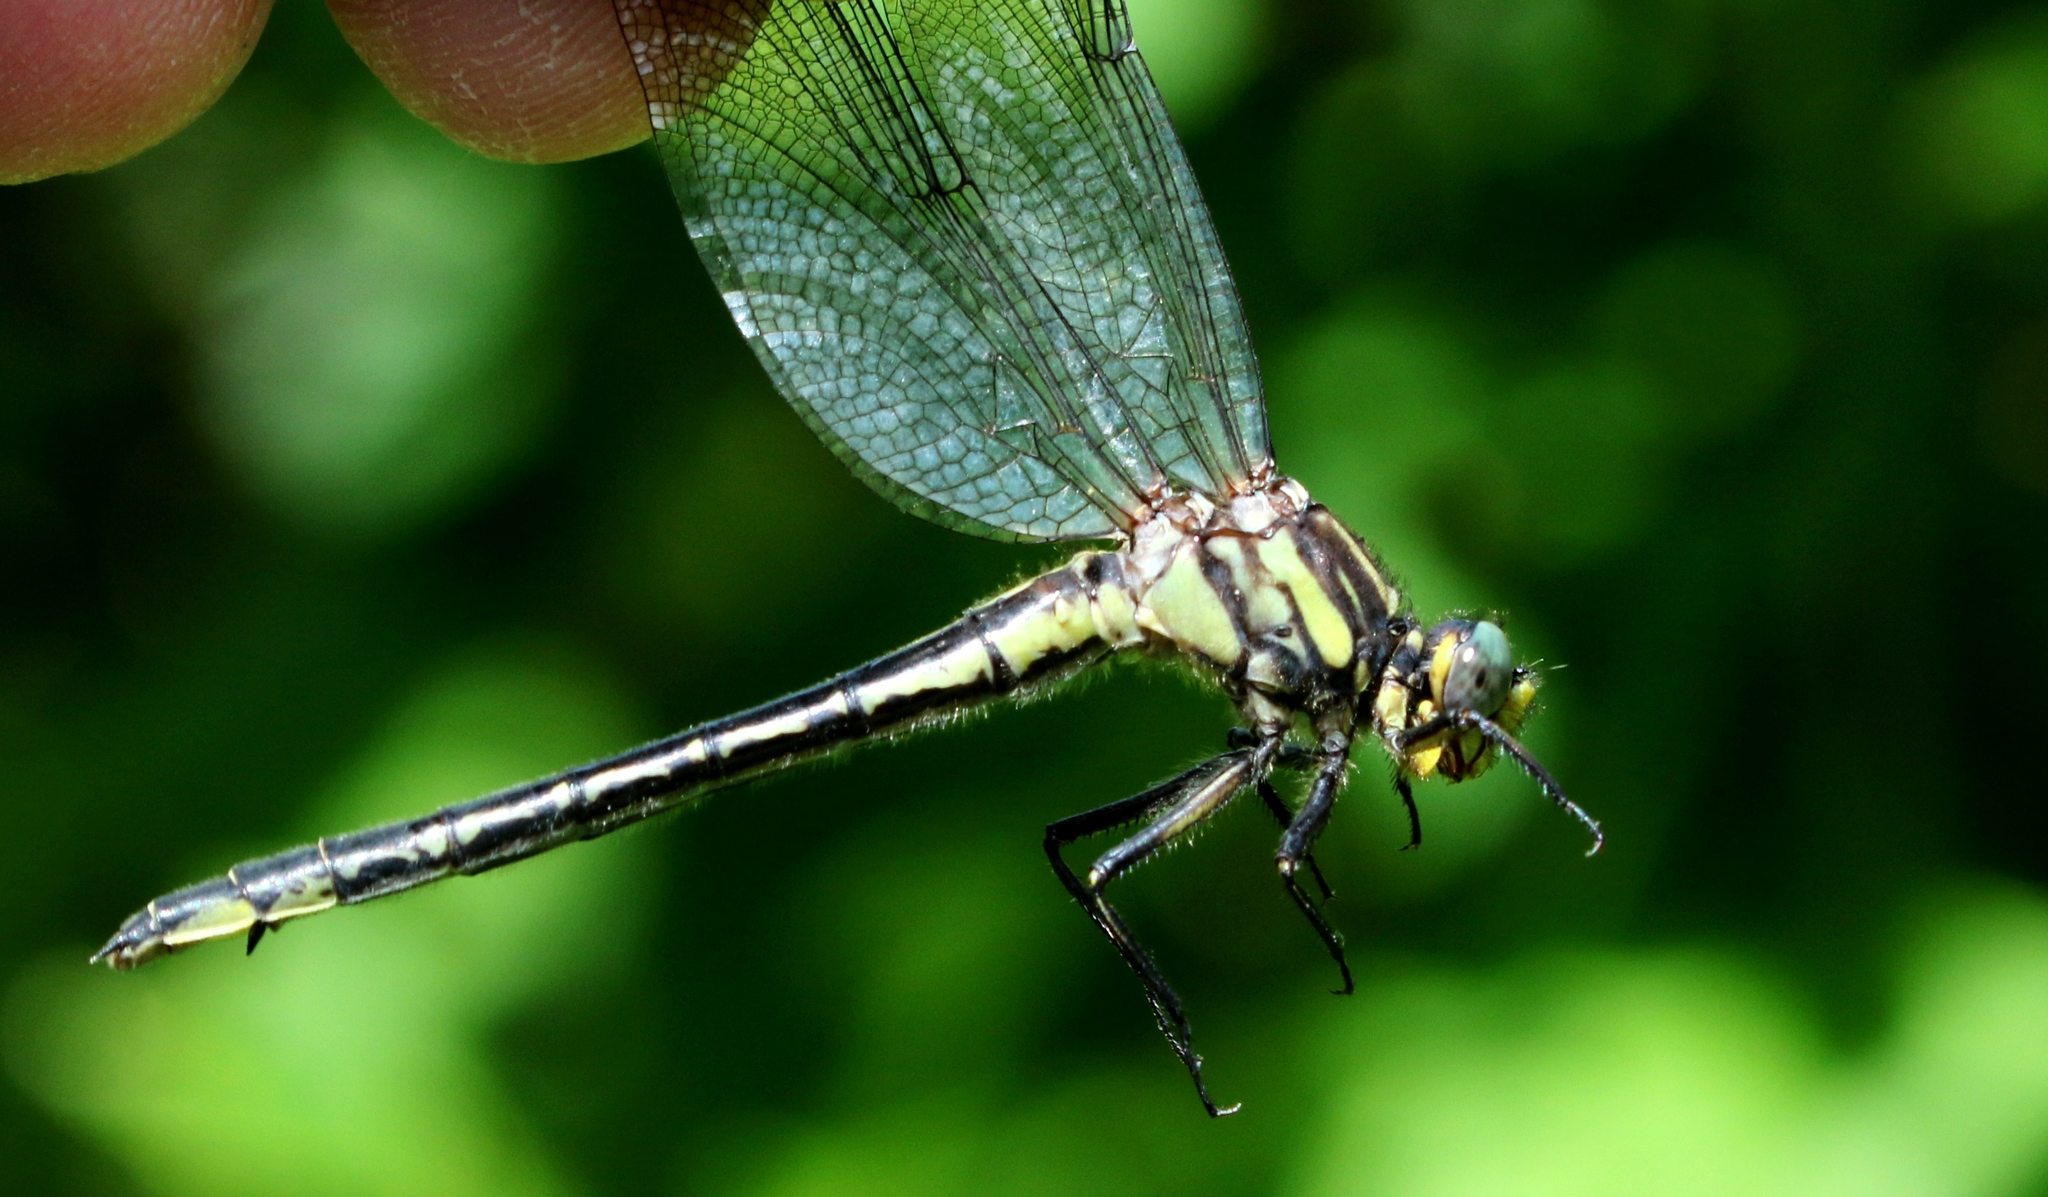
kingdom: Animalia
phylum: Arthropoda
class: Insecta
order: Odonata
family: Gomphidae
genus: Phanogomphus
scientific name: Phanogomphus descriptus
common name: Harpoon clubtail
